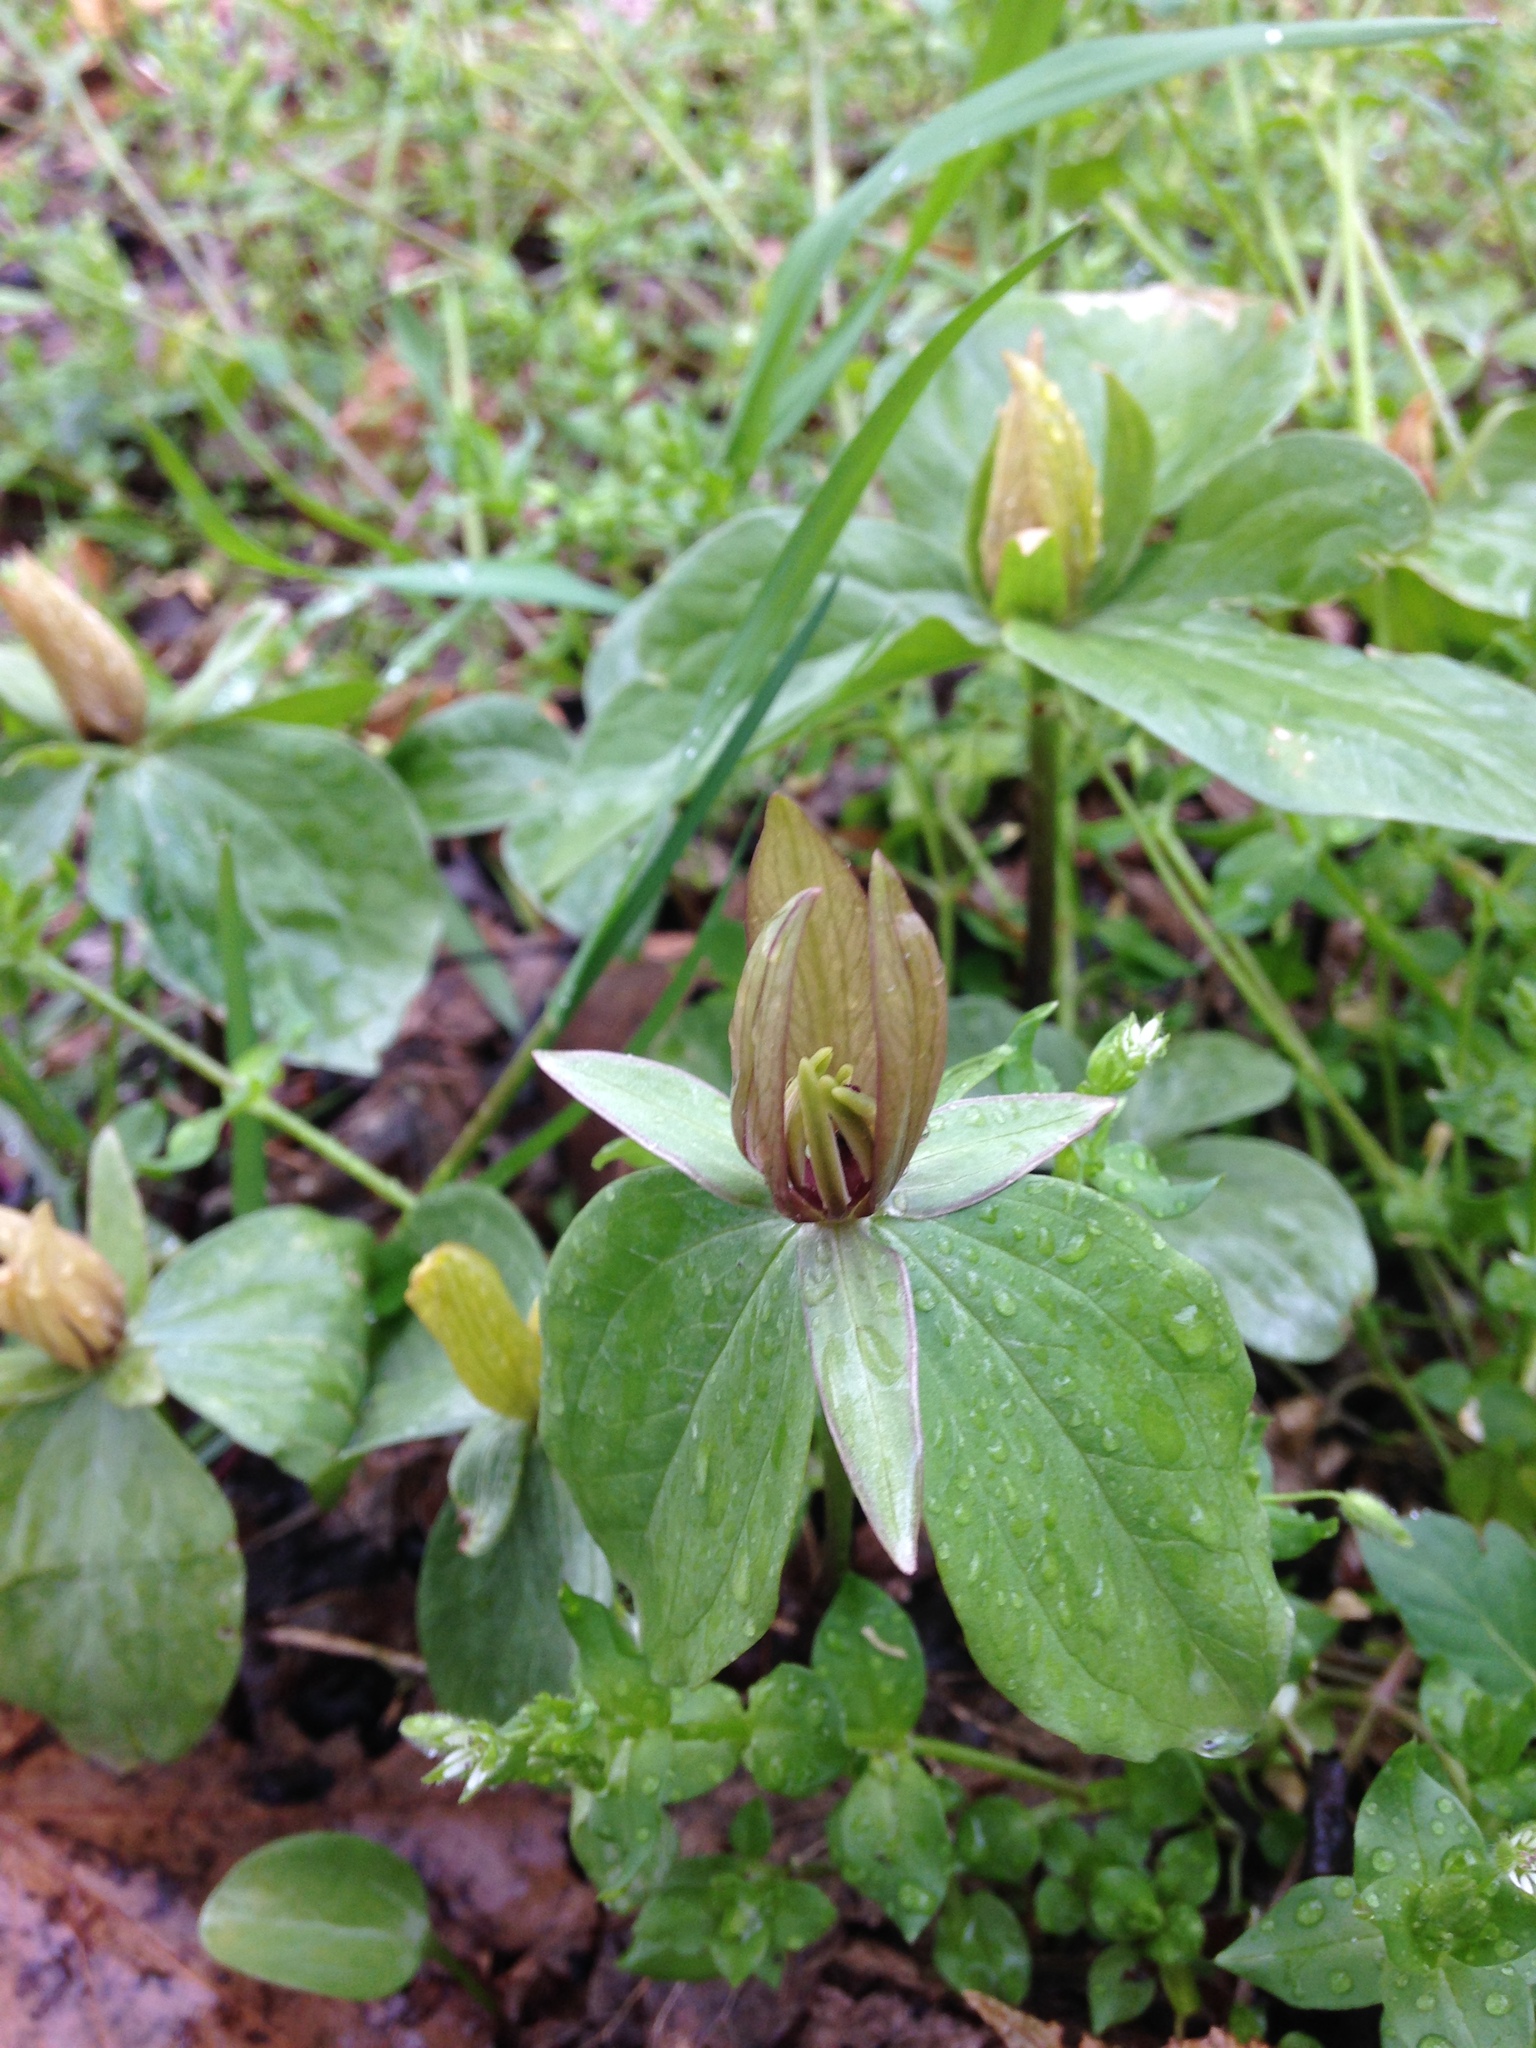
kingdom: Plantae
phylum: Tracheophyta
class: Liliopsida
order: Liliales
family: Melanthiaceae
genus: Trillium
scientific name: Trillium sessile
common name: Sessile trillium
